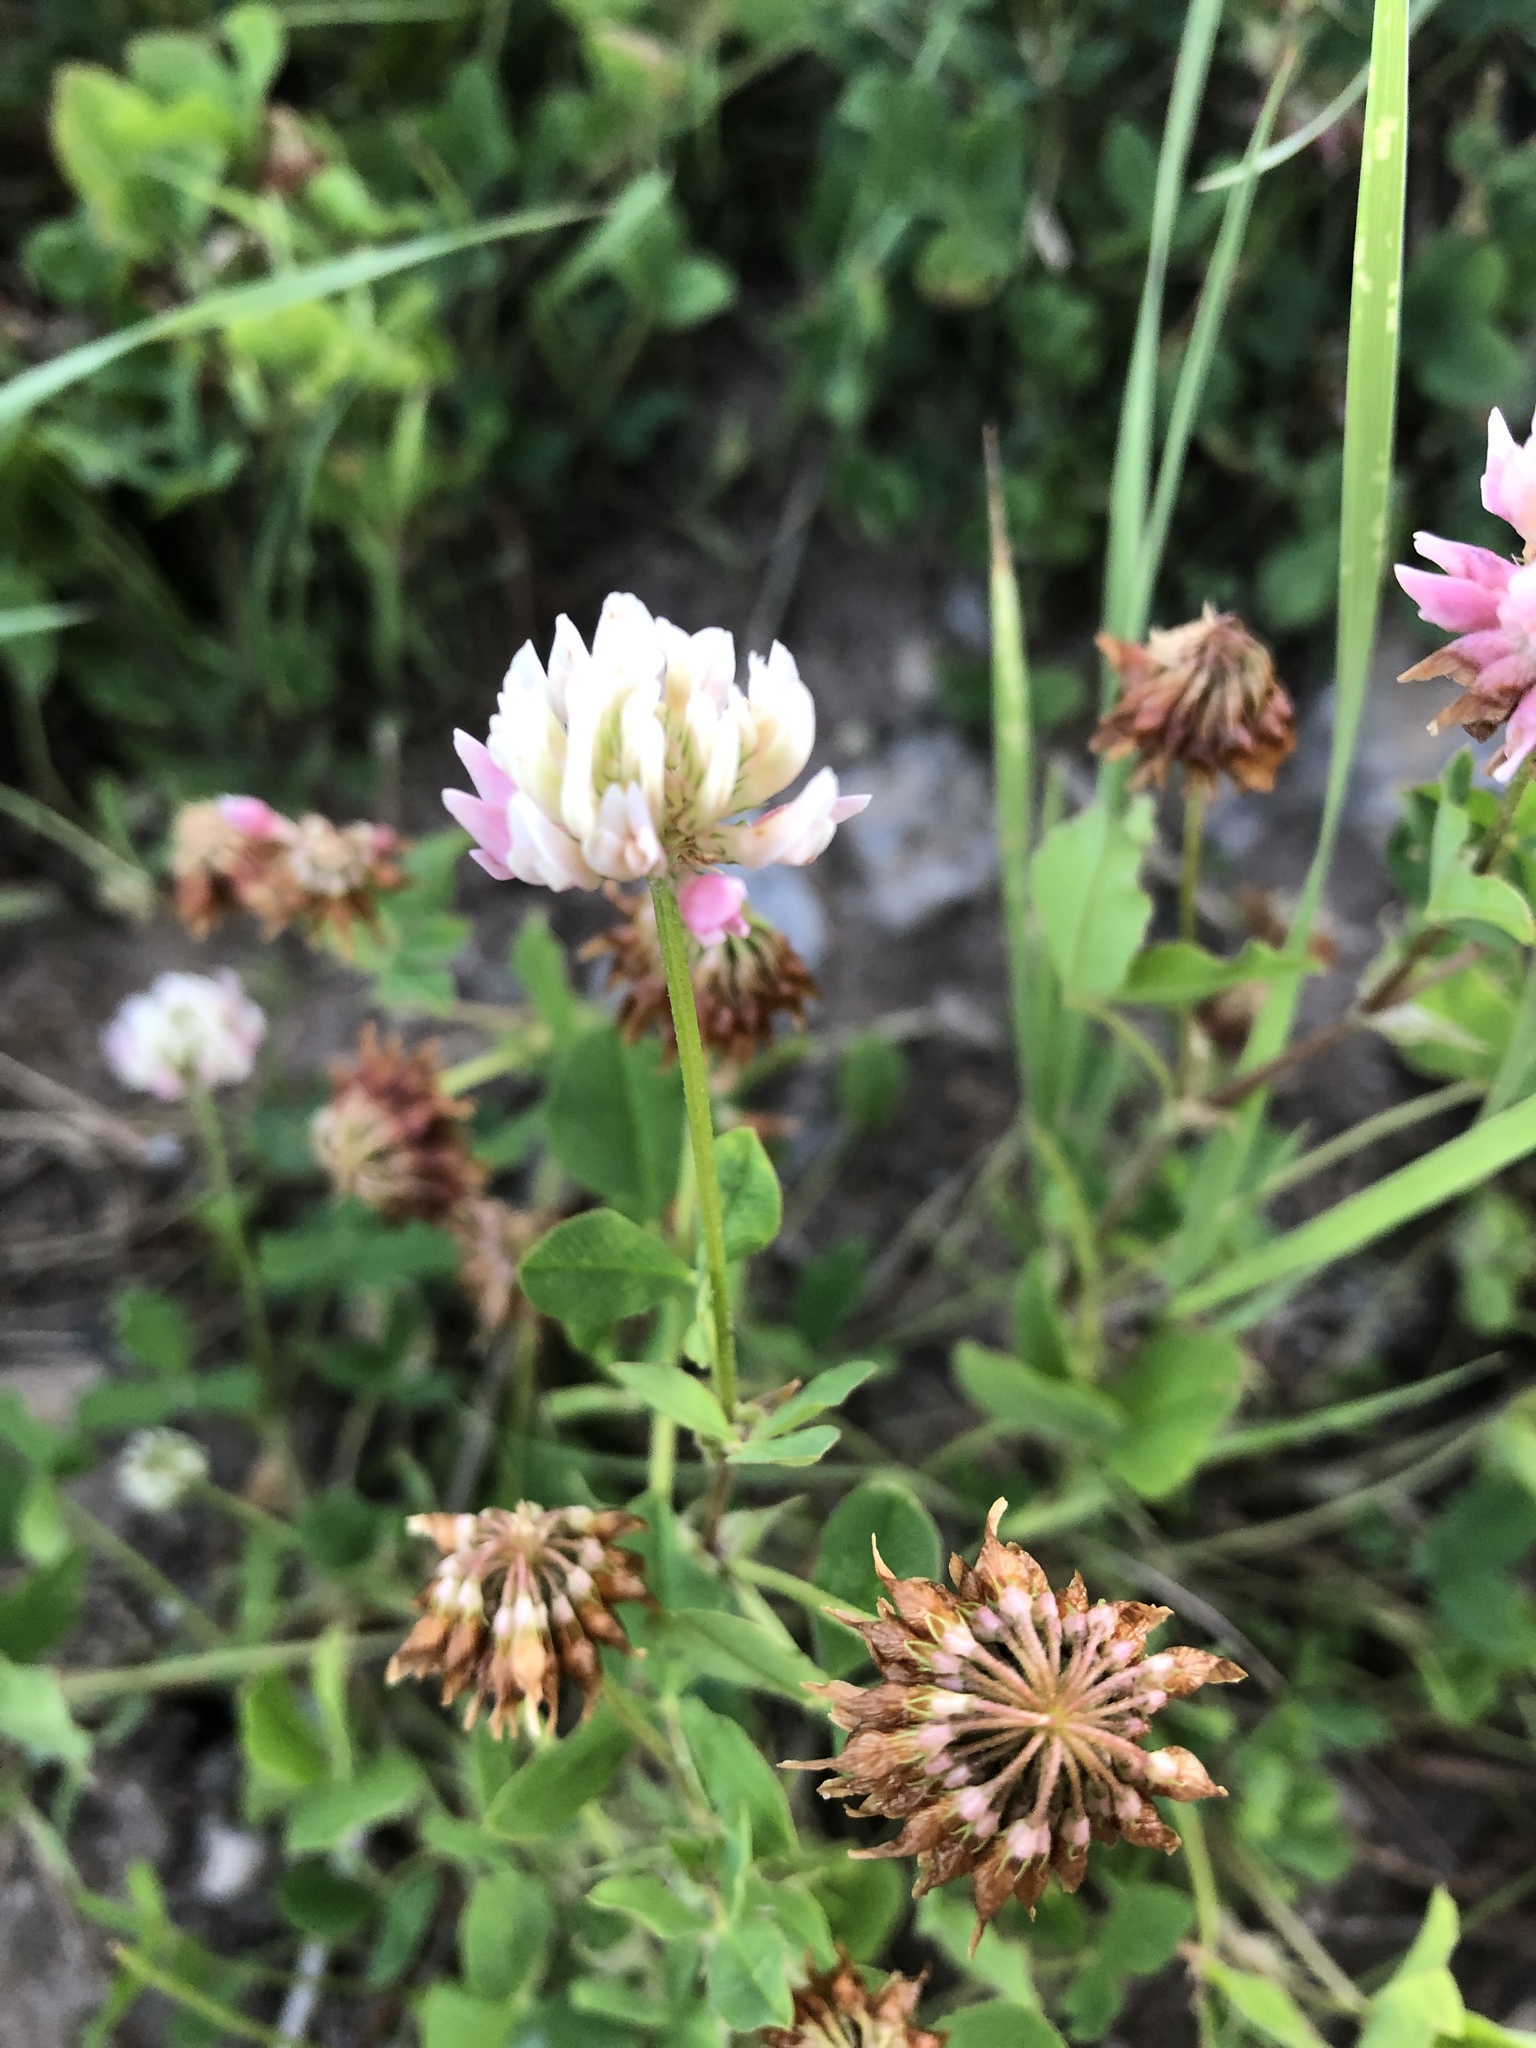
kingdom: Plantae
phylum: Tracheophyta
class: Magnoliopsida
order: Fabales
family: Fabaceae
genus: Trifolium
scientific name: Trifolium hybridum
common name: Alsike clover
